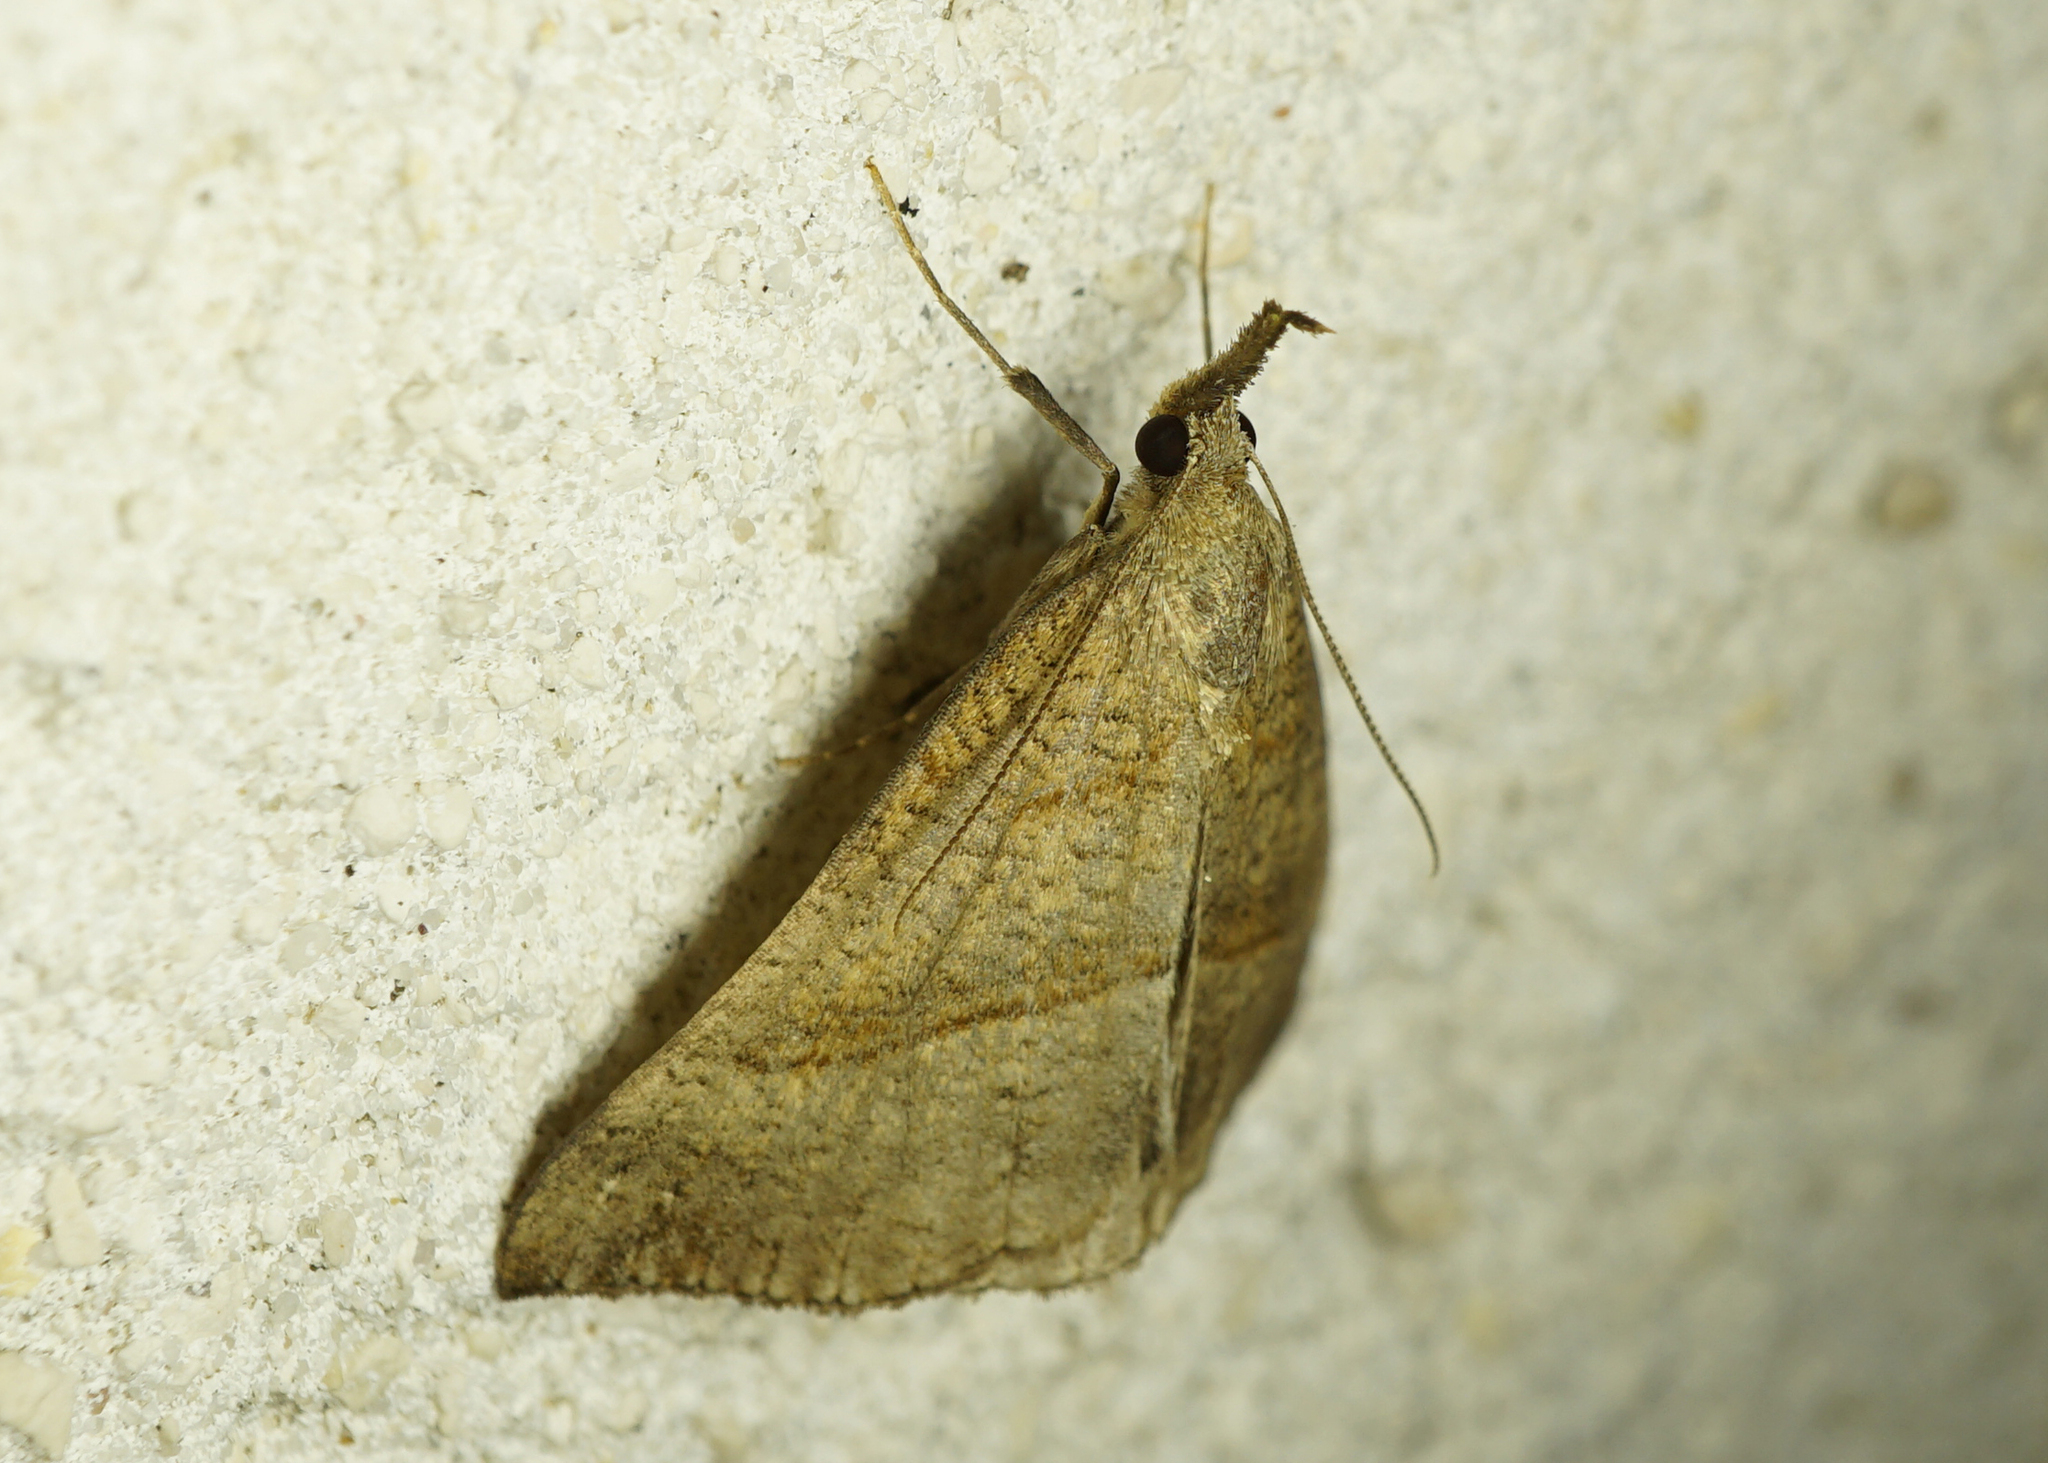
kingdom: Animalia
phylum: Arthropoda
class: Insecta
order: Lepidoptera
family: Erebidae
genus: Hypena
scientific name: Hypena proboscidalis
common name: Snout
